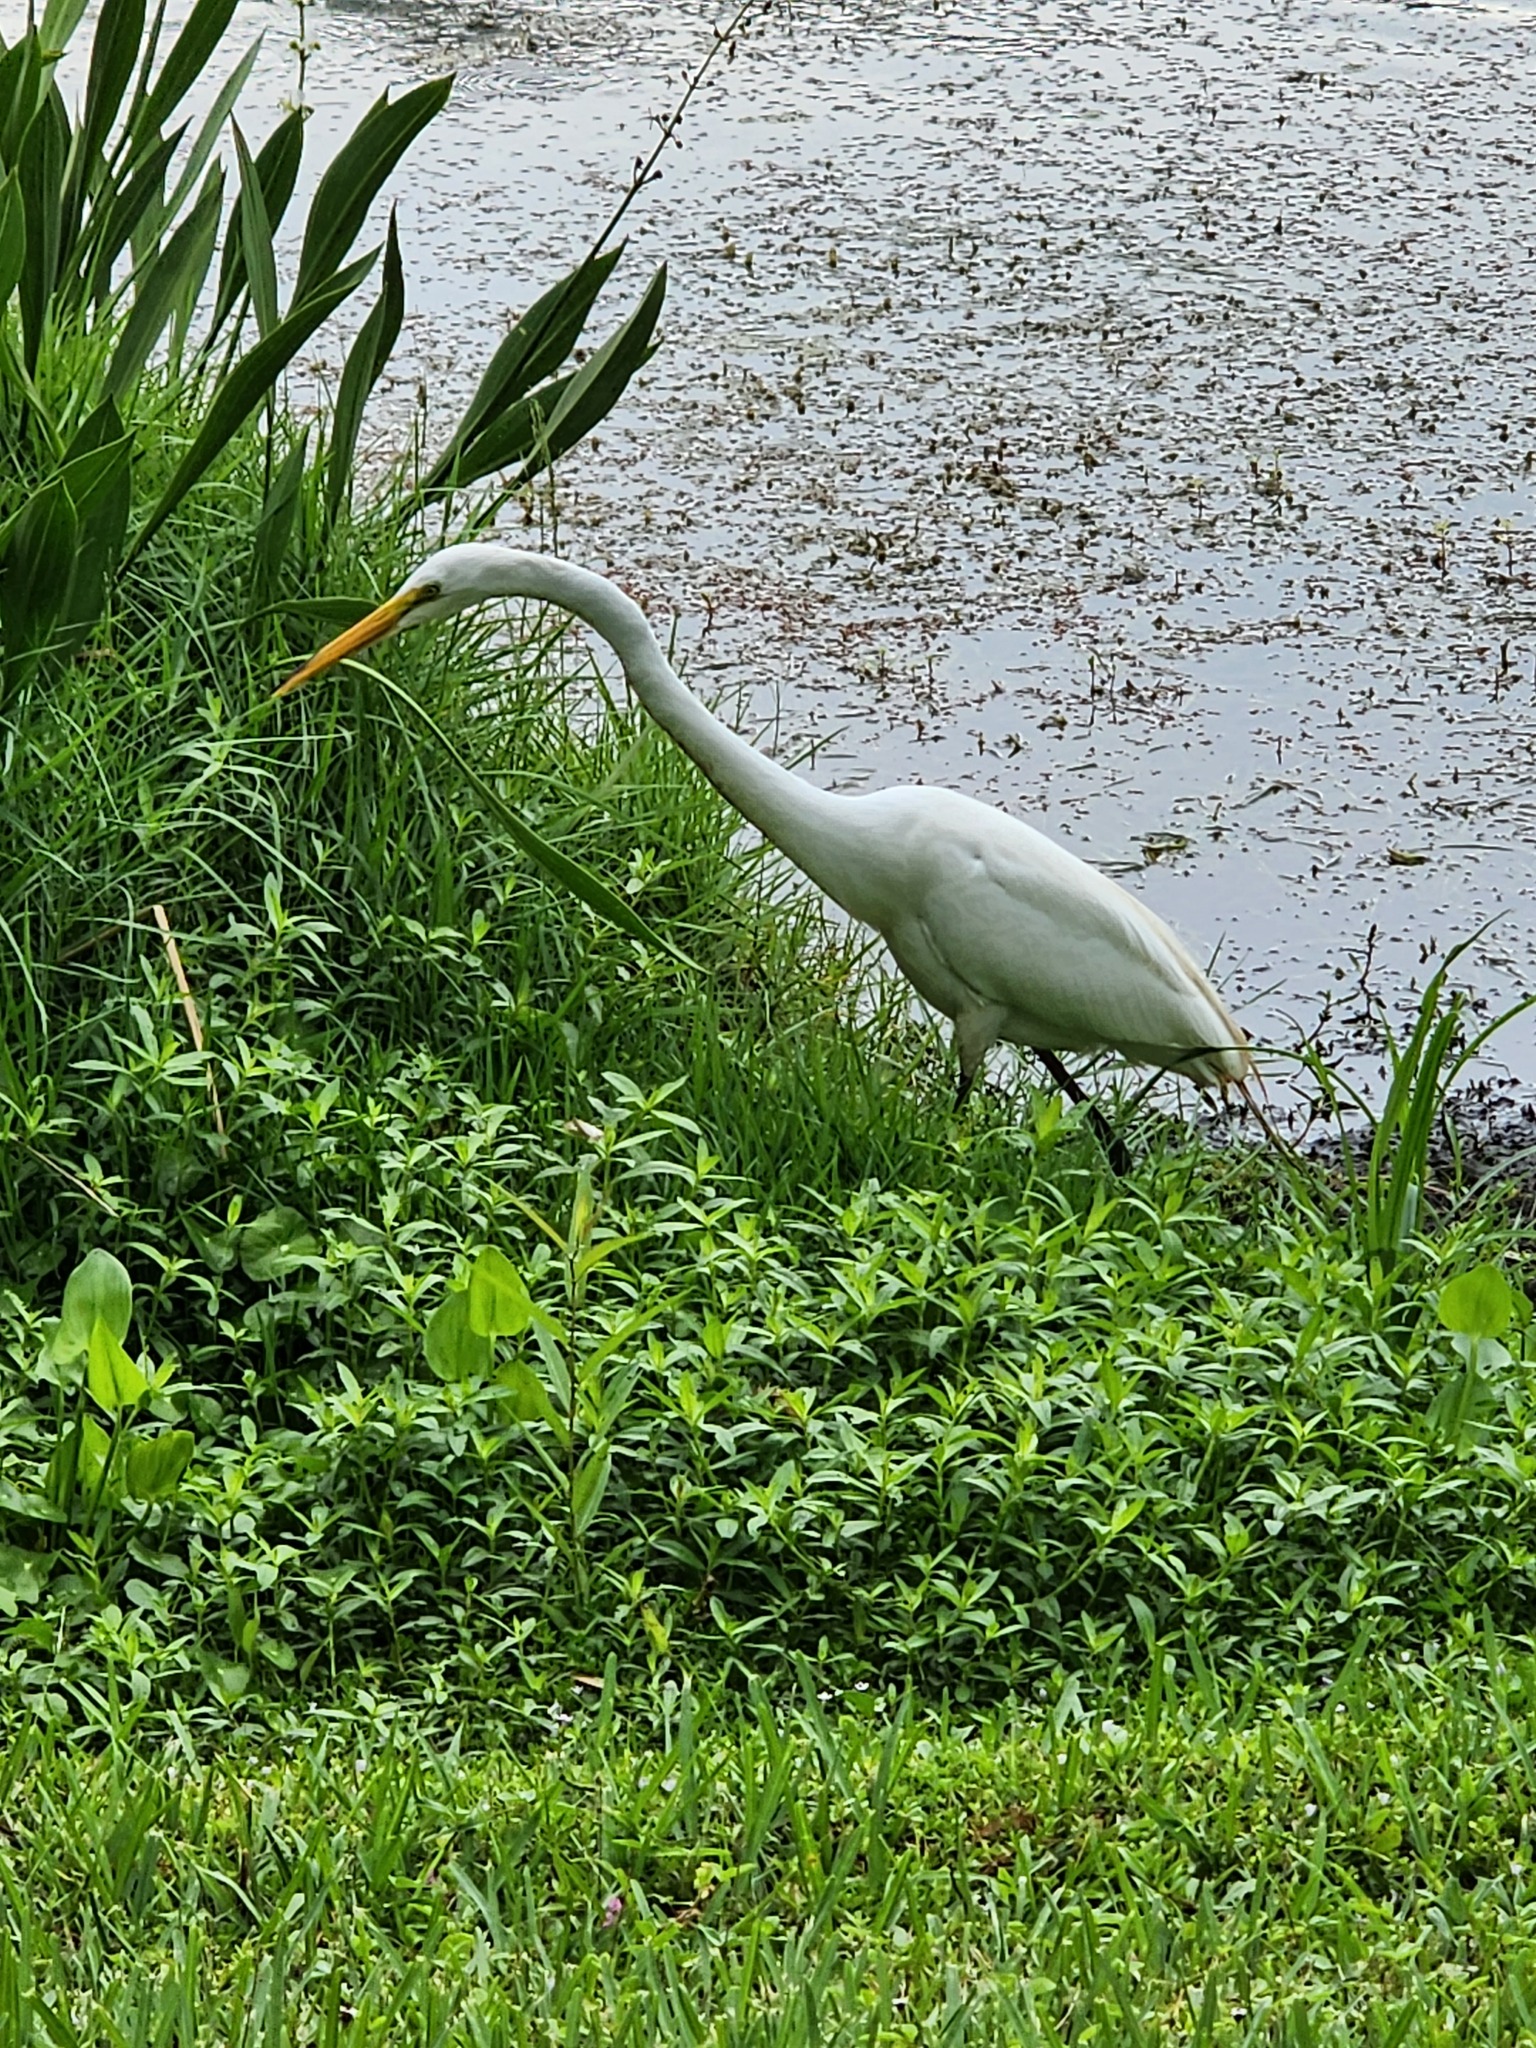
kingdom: Animalia
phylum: Chordata
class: Aves
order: Pelecaniformes
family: Ardeidae
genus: Ardea
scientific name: Ardea alba
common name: Great egret
